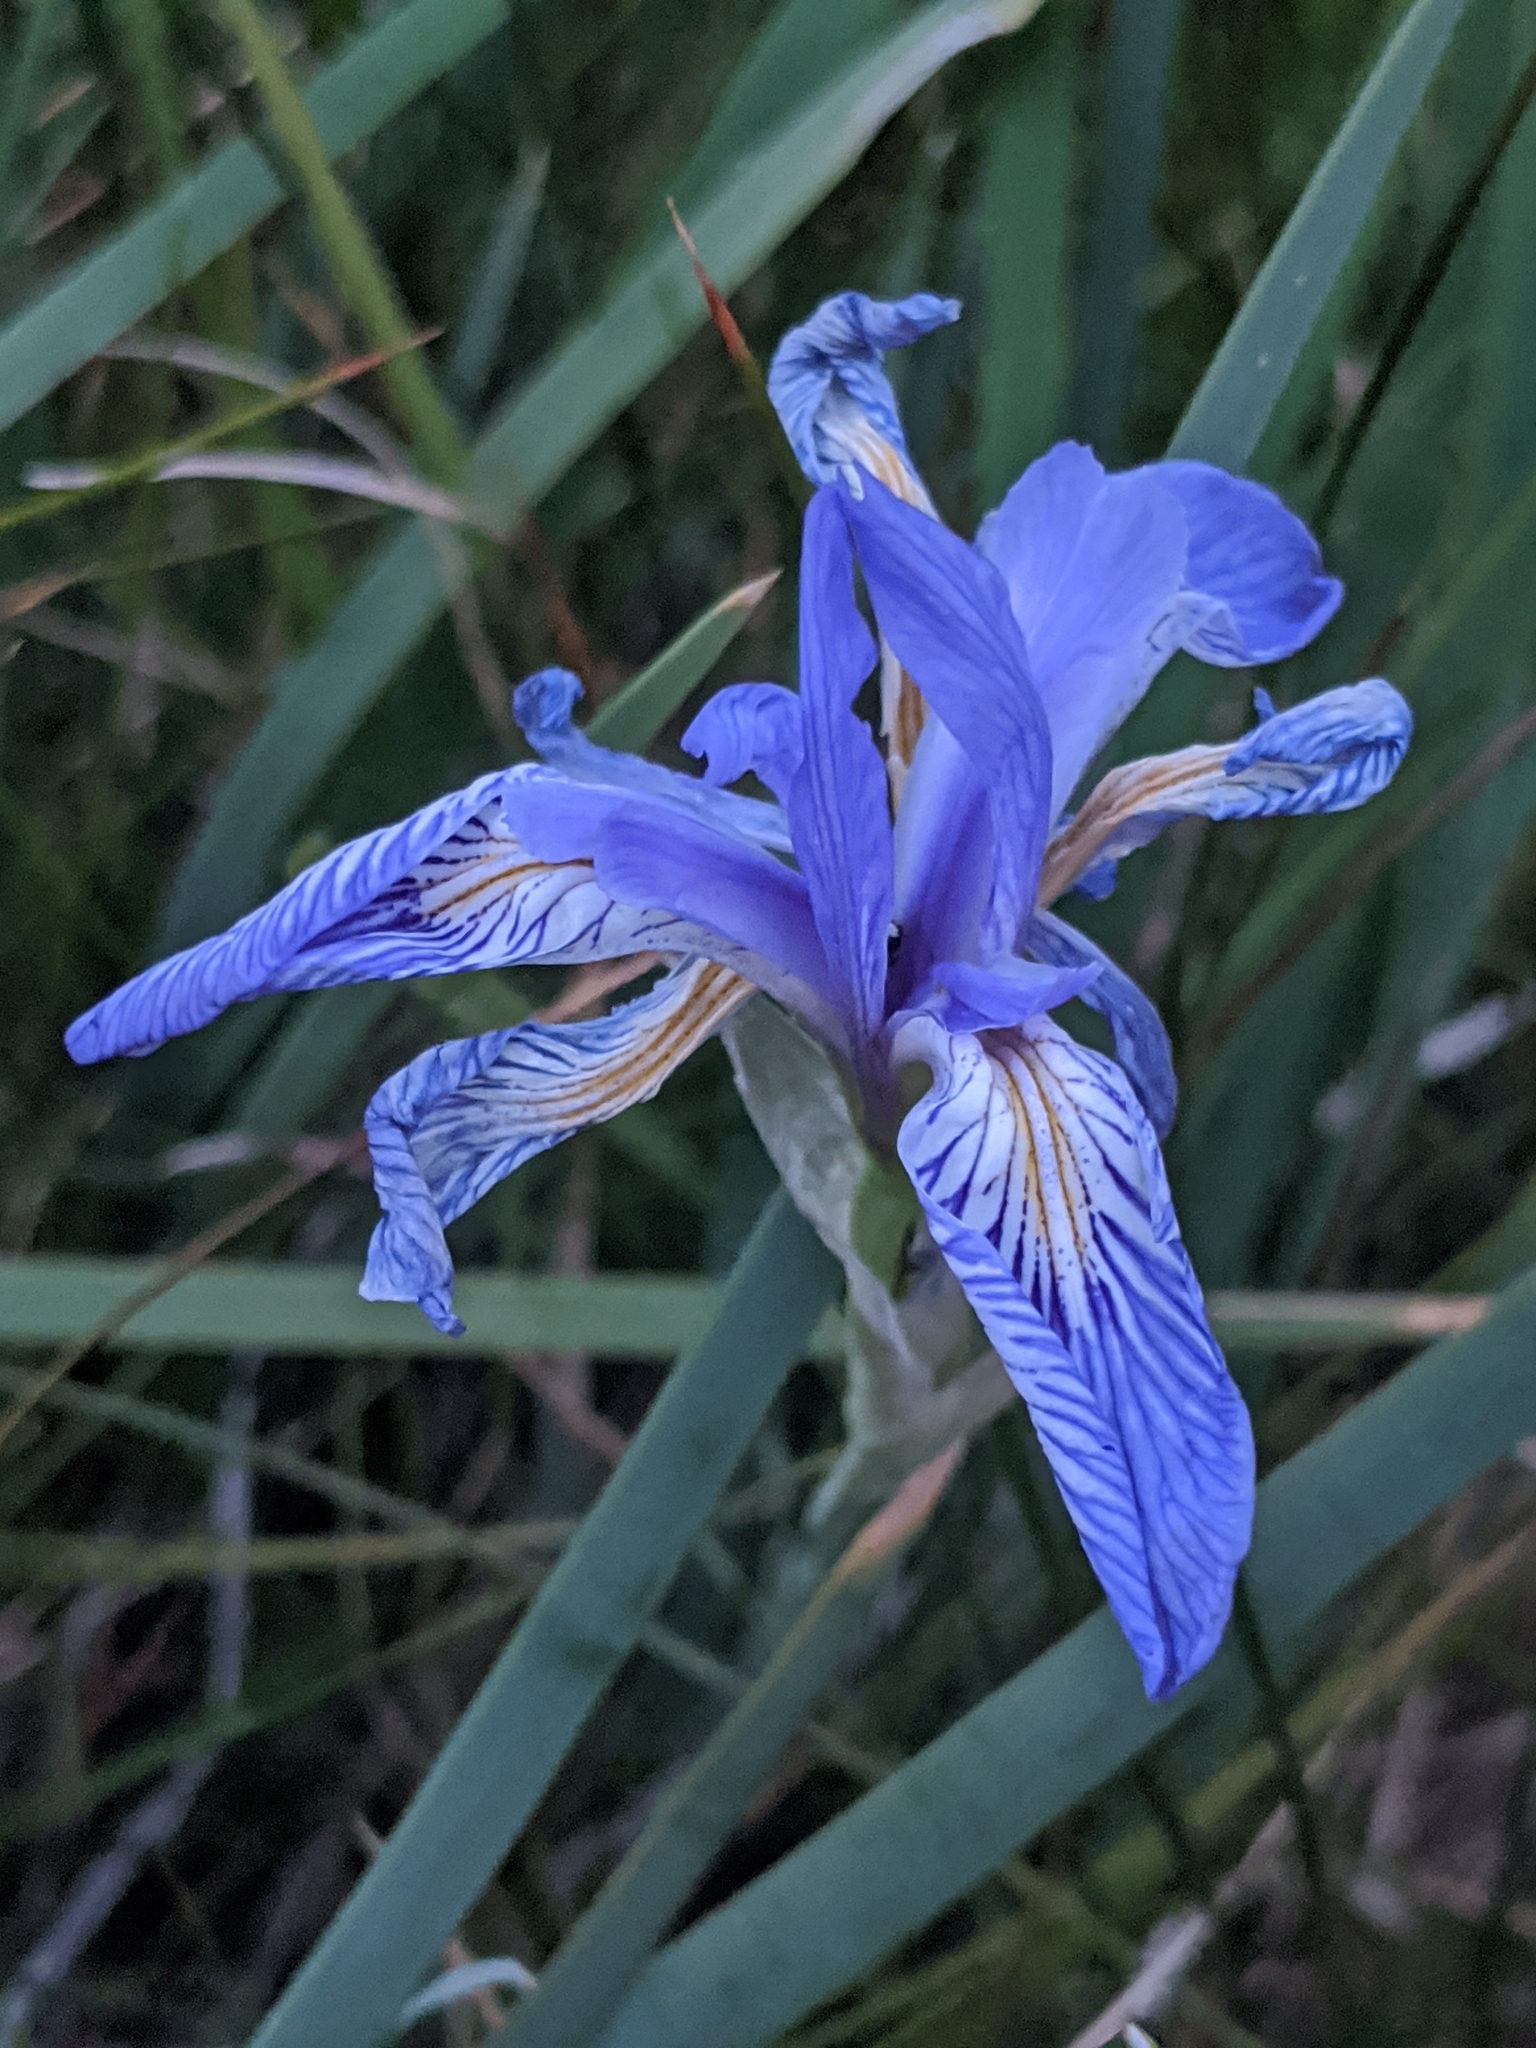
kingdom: Plantae
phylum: Tracheophyta
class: Liliopsida
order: Asparagales
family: Iridaceae
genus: Iris
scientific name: Iris missouriensis
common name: Rocky mountain iris
